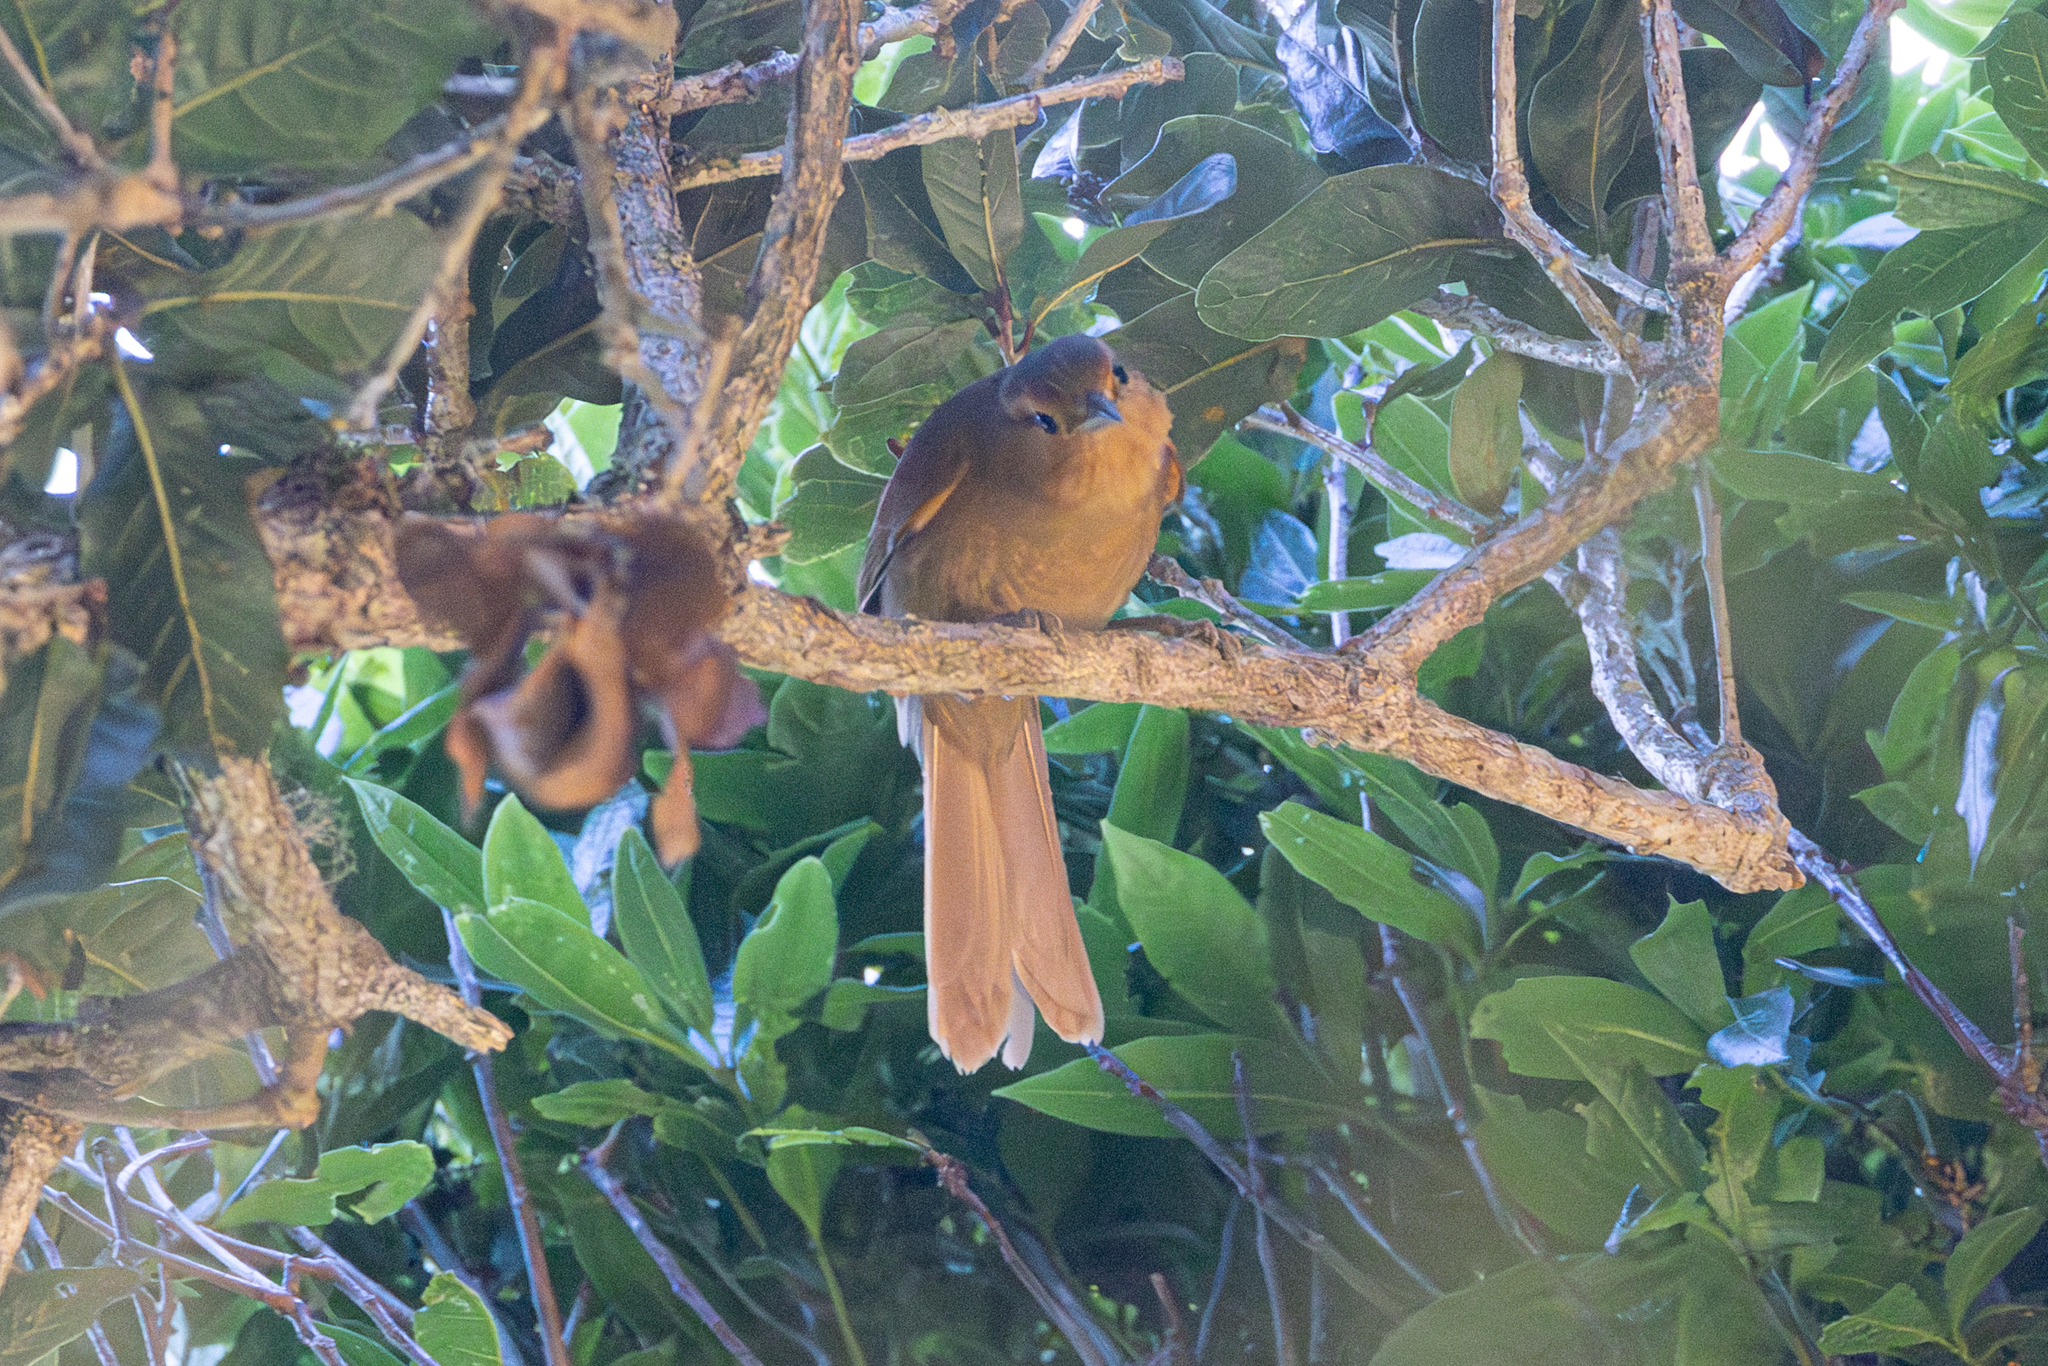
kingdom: Animalia
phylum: Chordata
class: Aves
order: Passeriformes
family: Furnariidae
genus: Philydor
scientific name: Philydor rufum
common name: Buff-fronted foliage-gleaner
